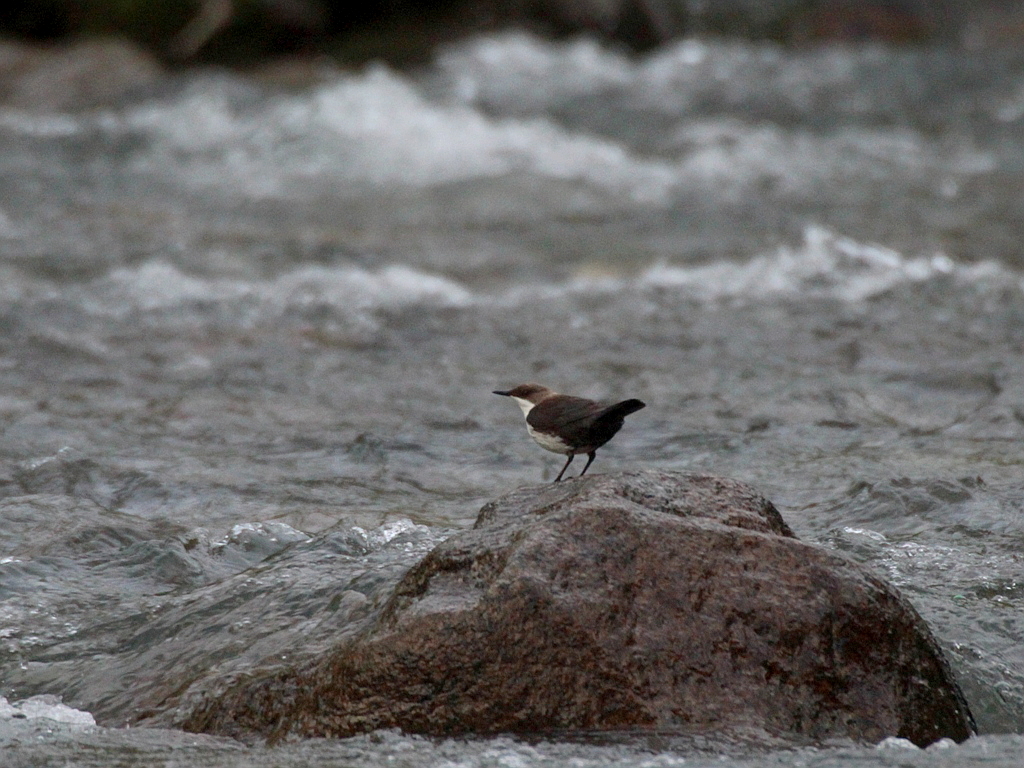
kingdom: Animalia
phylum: Chordata
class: Aves
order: Passeriformes
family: Cinclidae
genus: Cinclus
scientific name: Cinclus cinclus
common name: White-throated dipper
